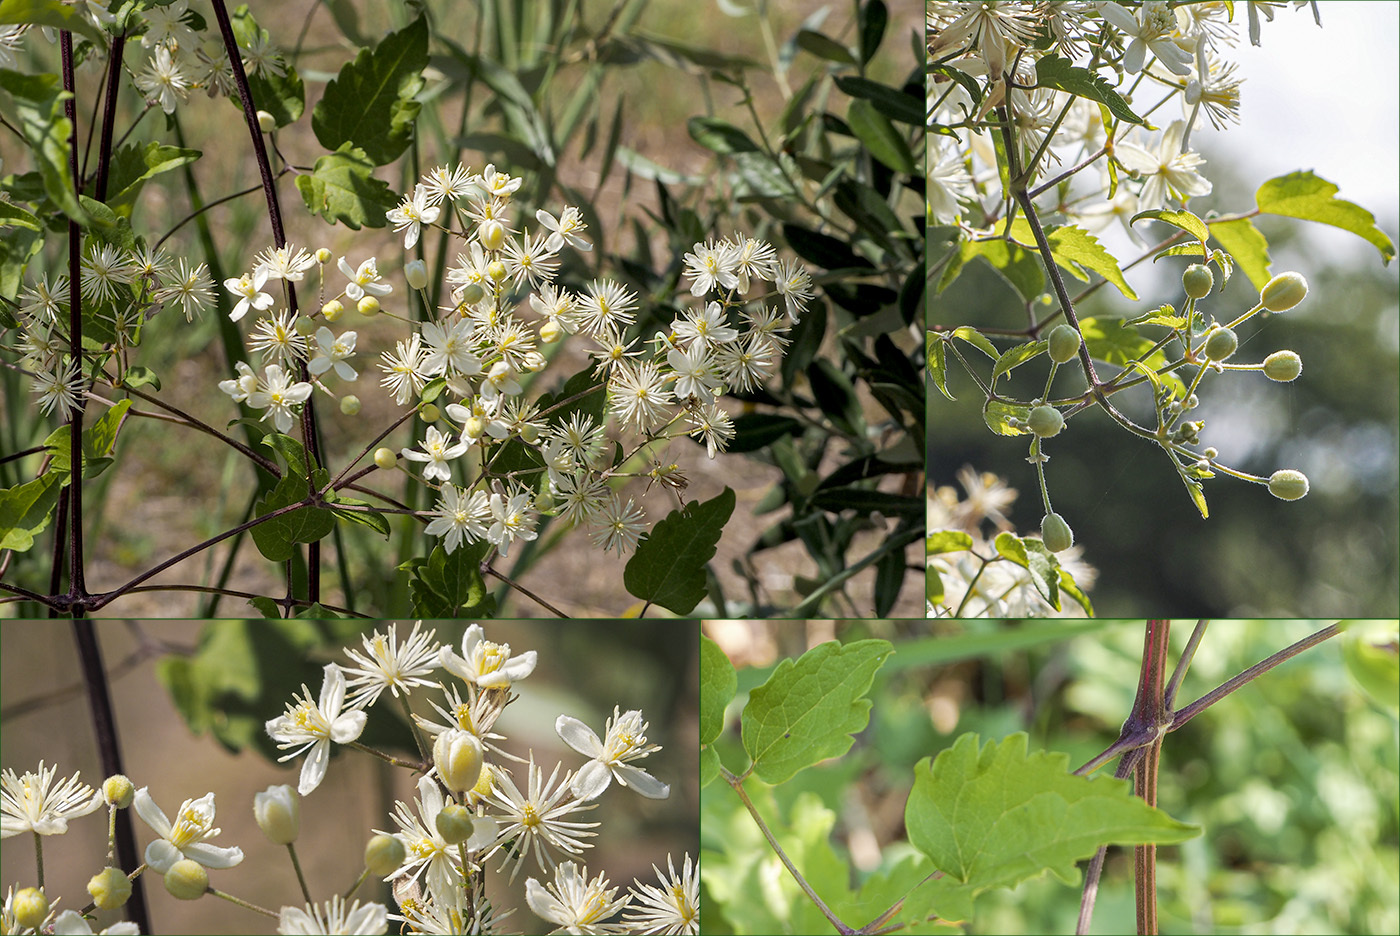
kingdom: Plantae
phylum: Tracheophyta
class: Magnoliopsida
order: Ranunculales
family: Ranunculaceae
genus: Clematis
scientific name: Clematis vitalba
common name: Evergreen clematis
